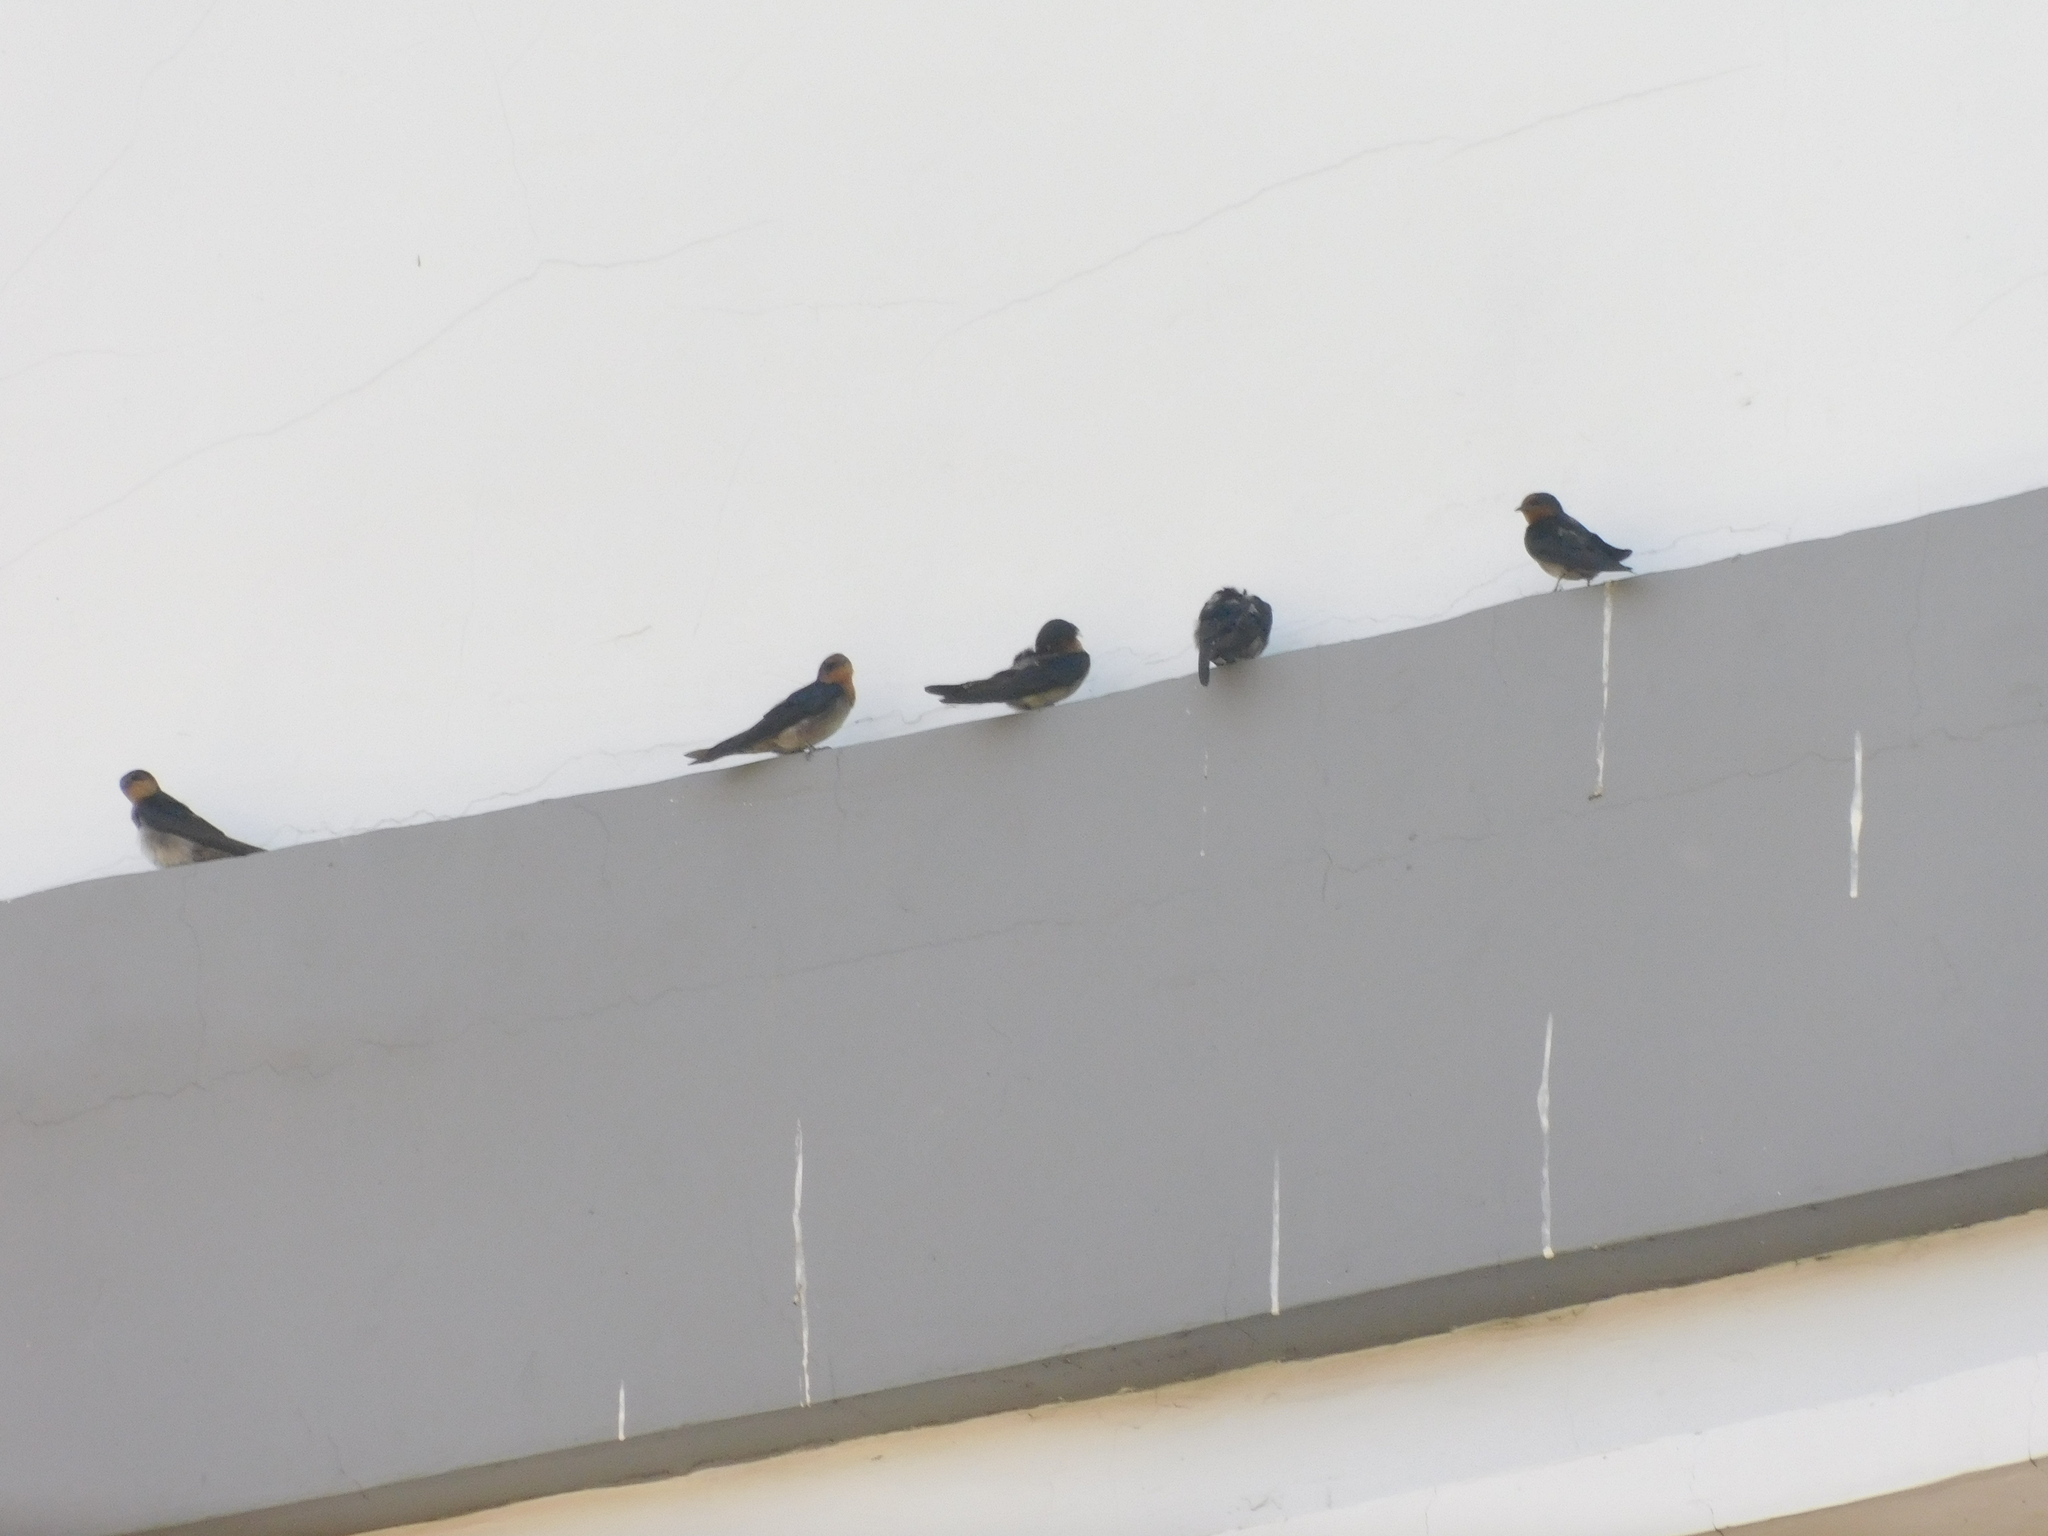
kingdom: Animalia
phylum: Chordata
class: Aves
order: Passeriformes
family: Hirundinidae
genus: Hirundo
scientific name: Hirundo tahitica
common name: Pacific swallow
